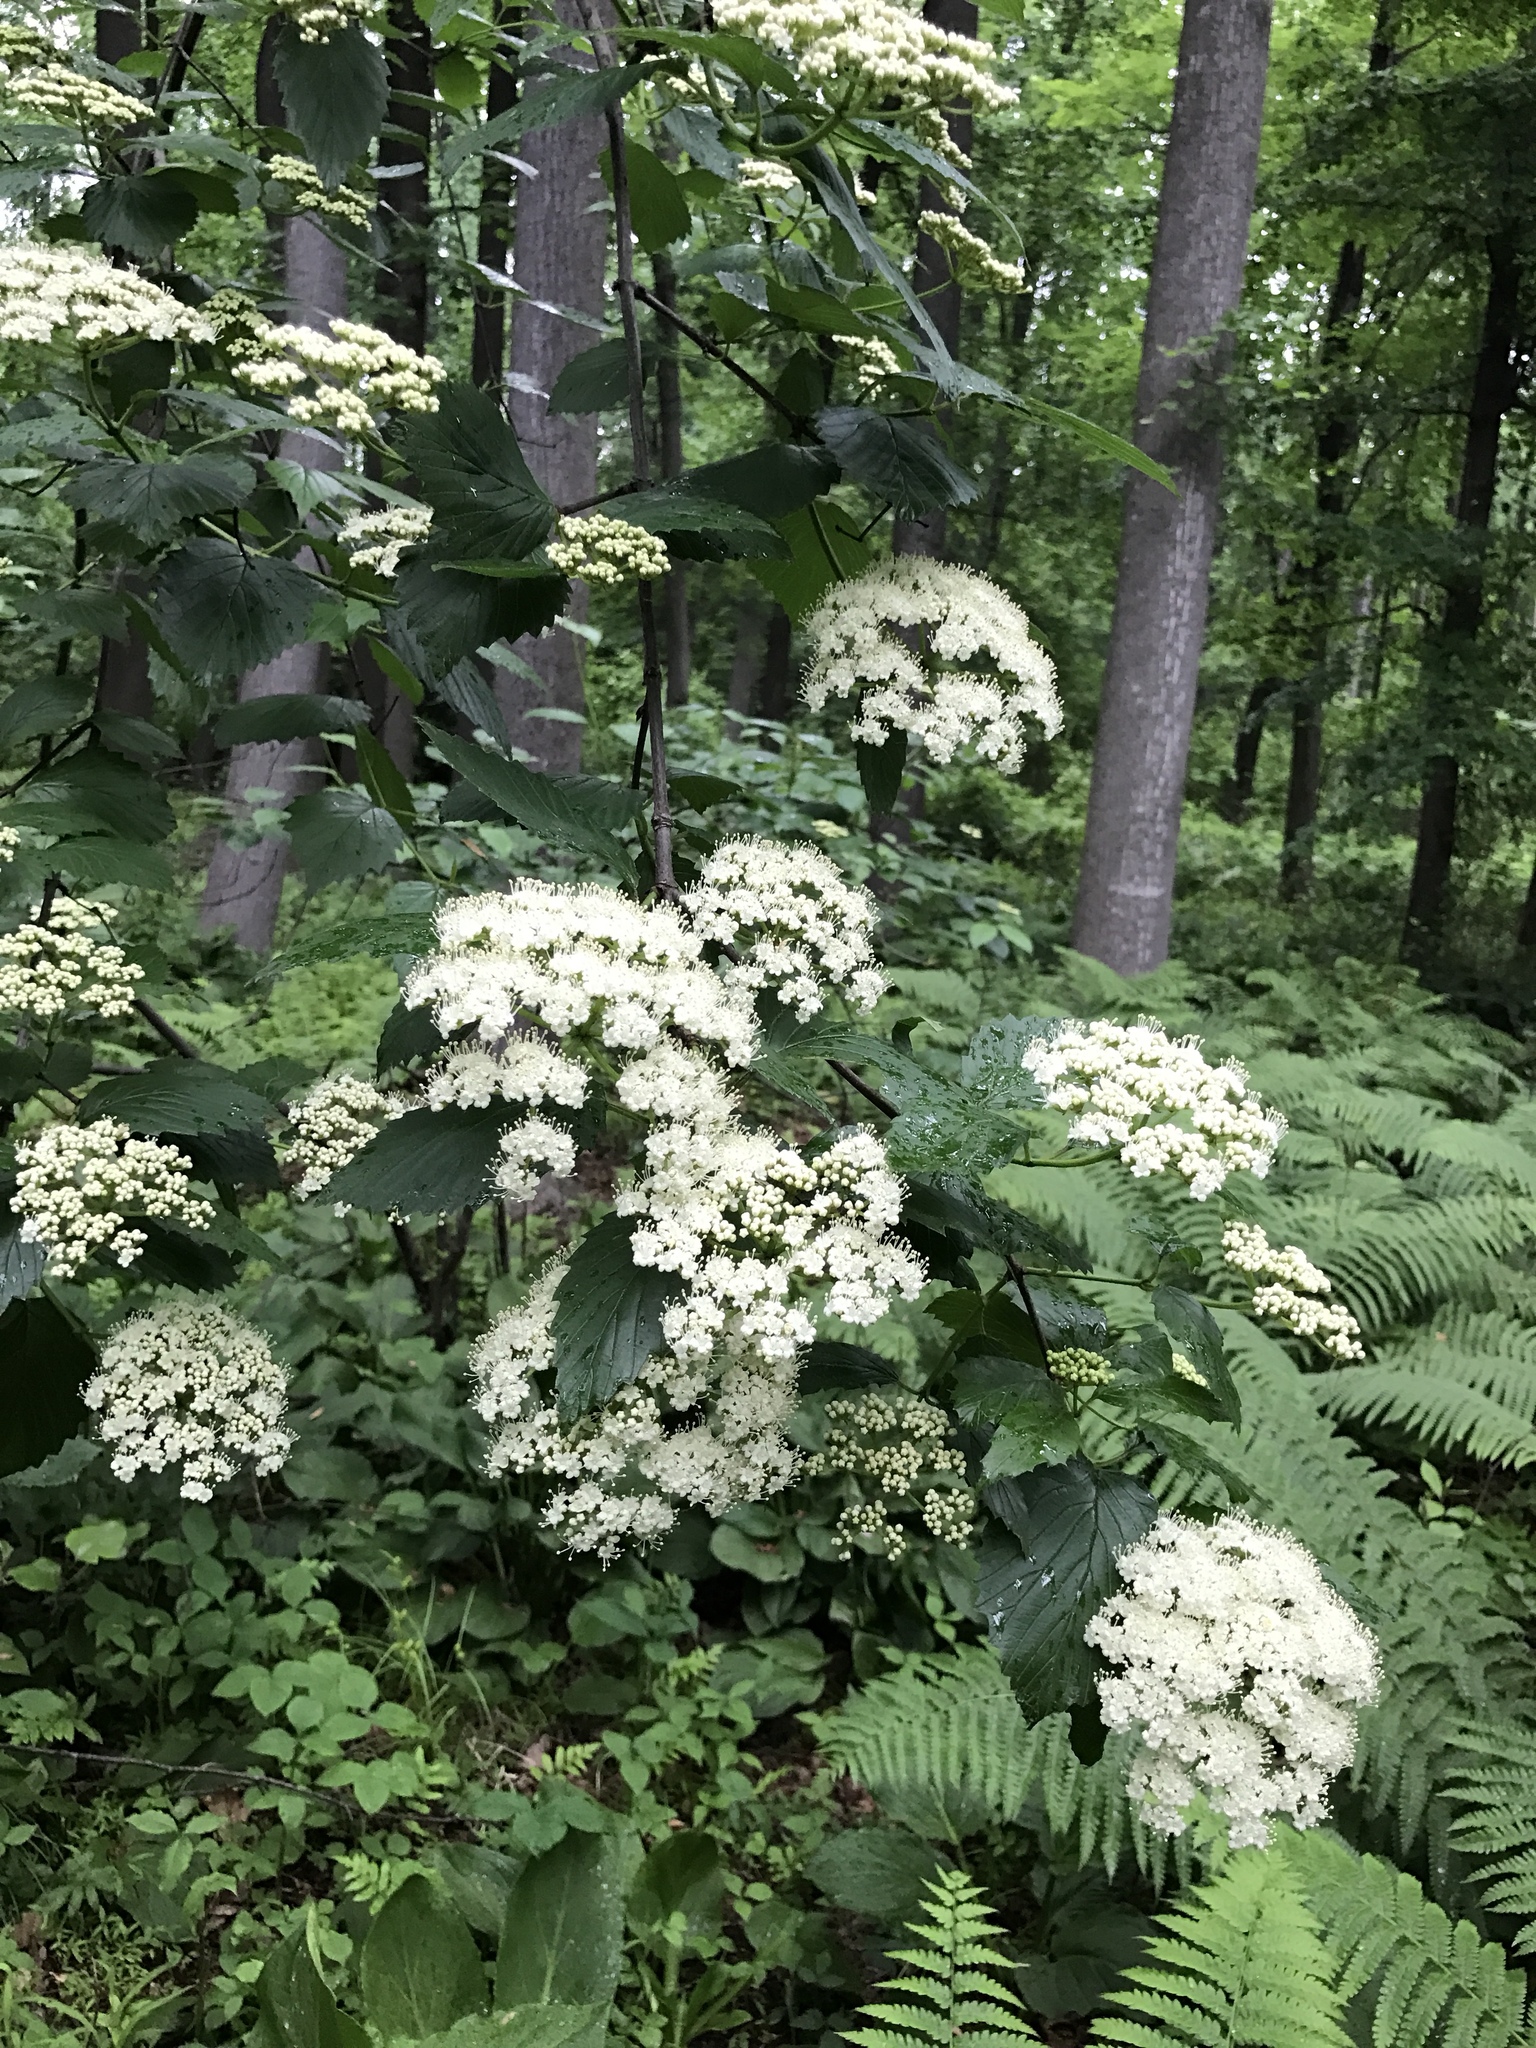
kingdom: Plantae
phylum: Tracheophyta
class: Magnoliopsida
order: Dipsacales
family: Viburnaceae
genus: Viburnum
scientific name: Viburnum dentatum
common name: Arrow-wood
